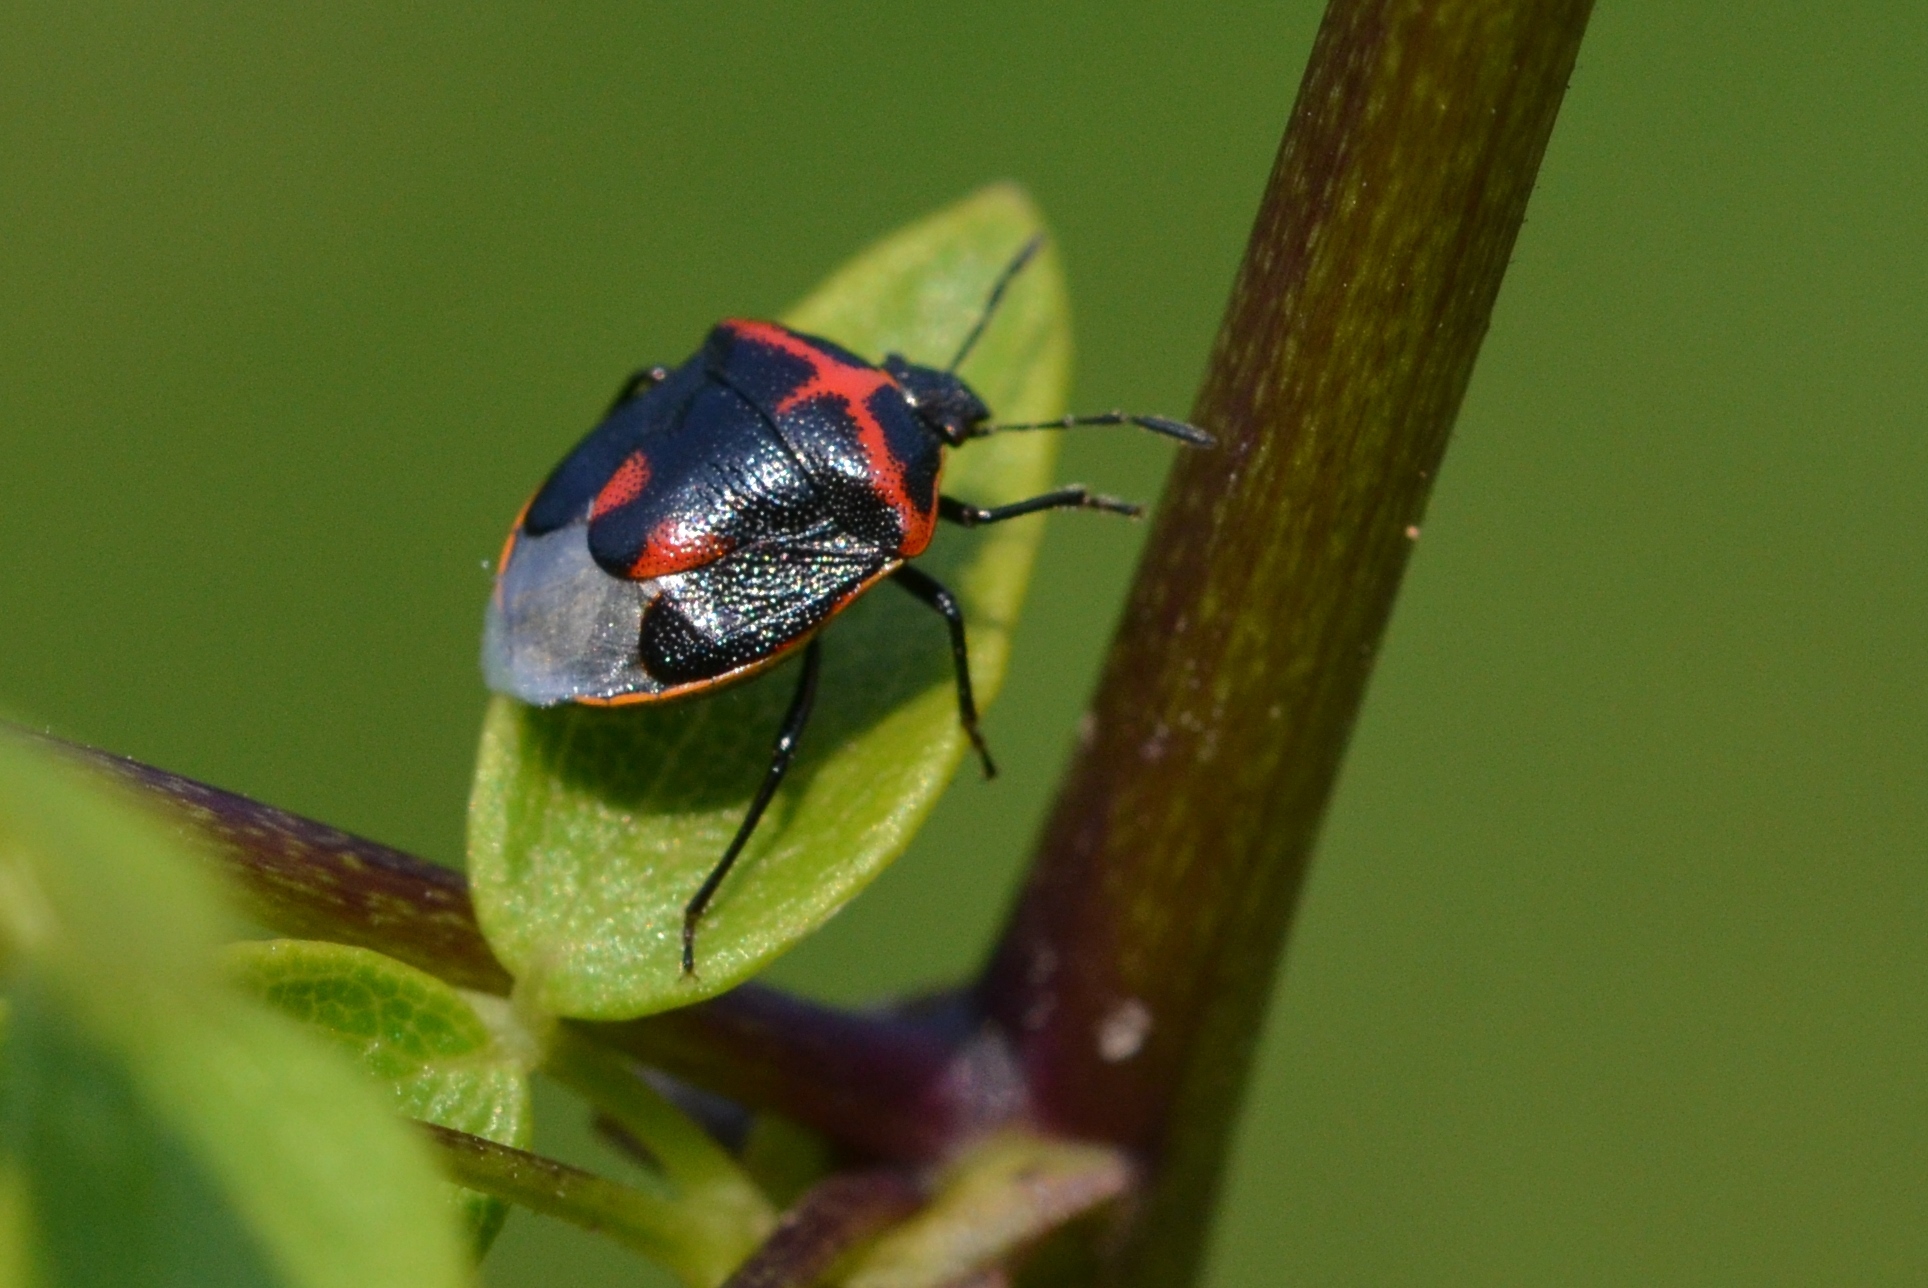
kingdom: Animalia
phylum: Arthropoda
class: Insecta
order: Hemiptera
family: Pentatomidae
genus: Cosmopepla
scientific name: Cosmopepla lintneriana
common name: Twice-stabbed stink bug
